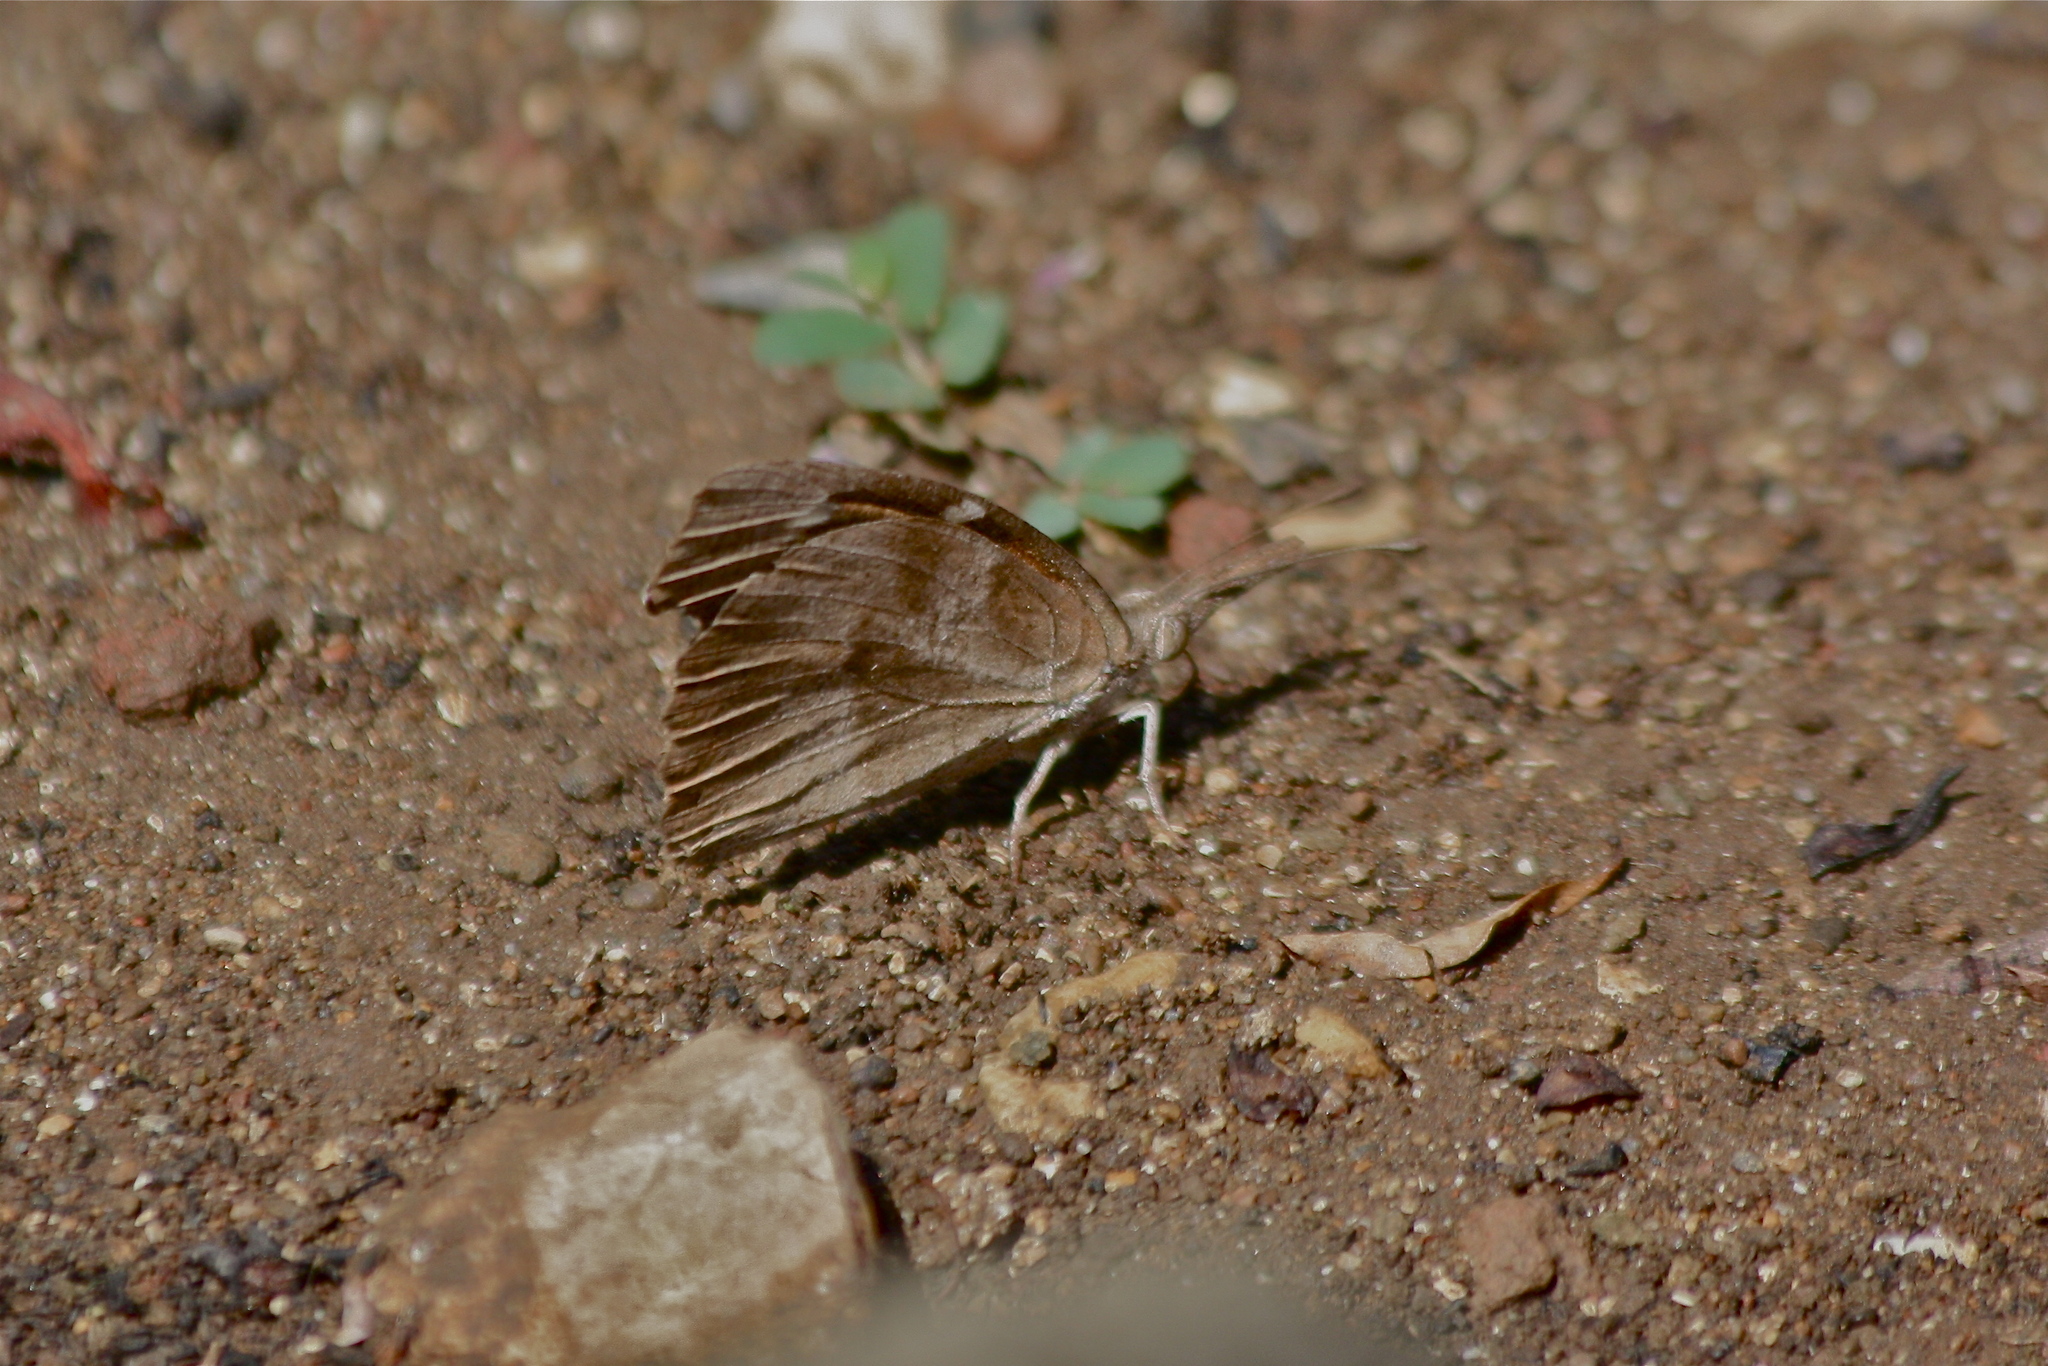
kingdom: Animalia
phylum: Arthropoda
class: Insecta
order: Lepidoptera
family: Nymphalidae
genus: Libytheana
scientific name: Libytheana carinenta
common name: American snout
